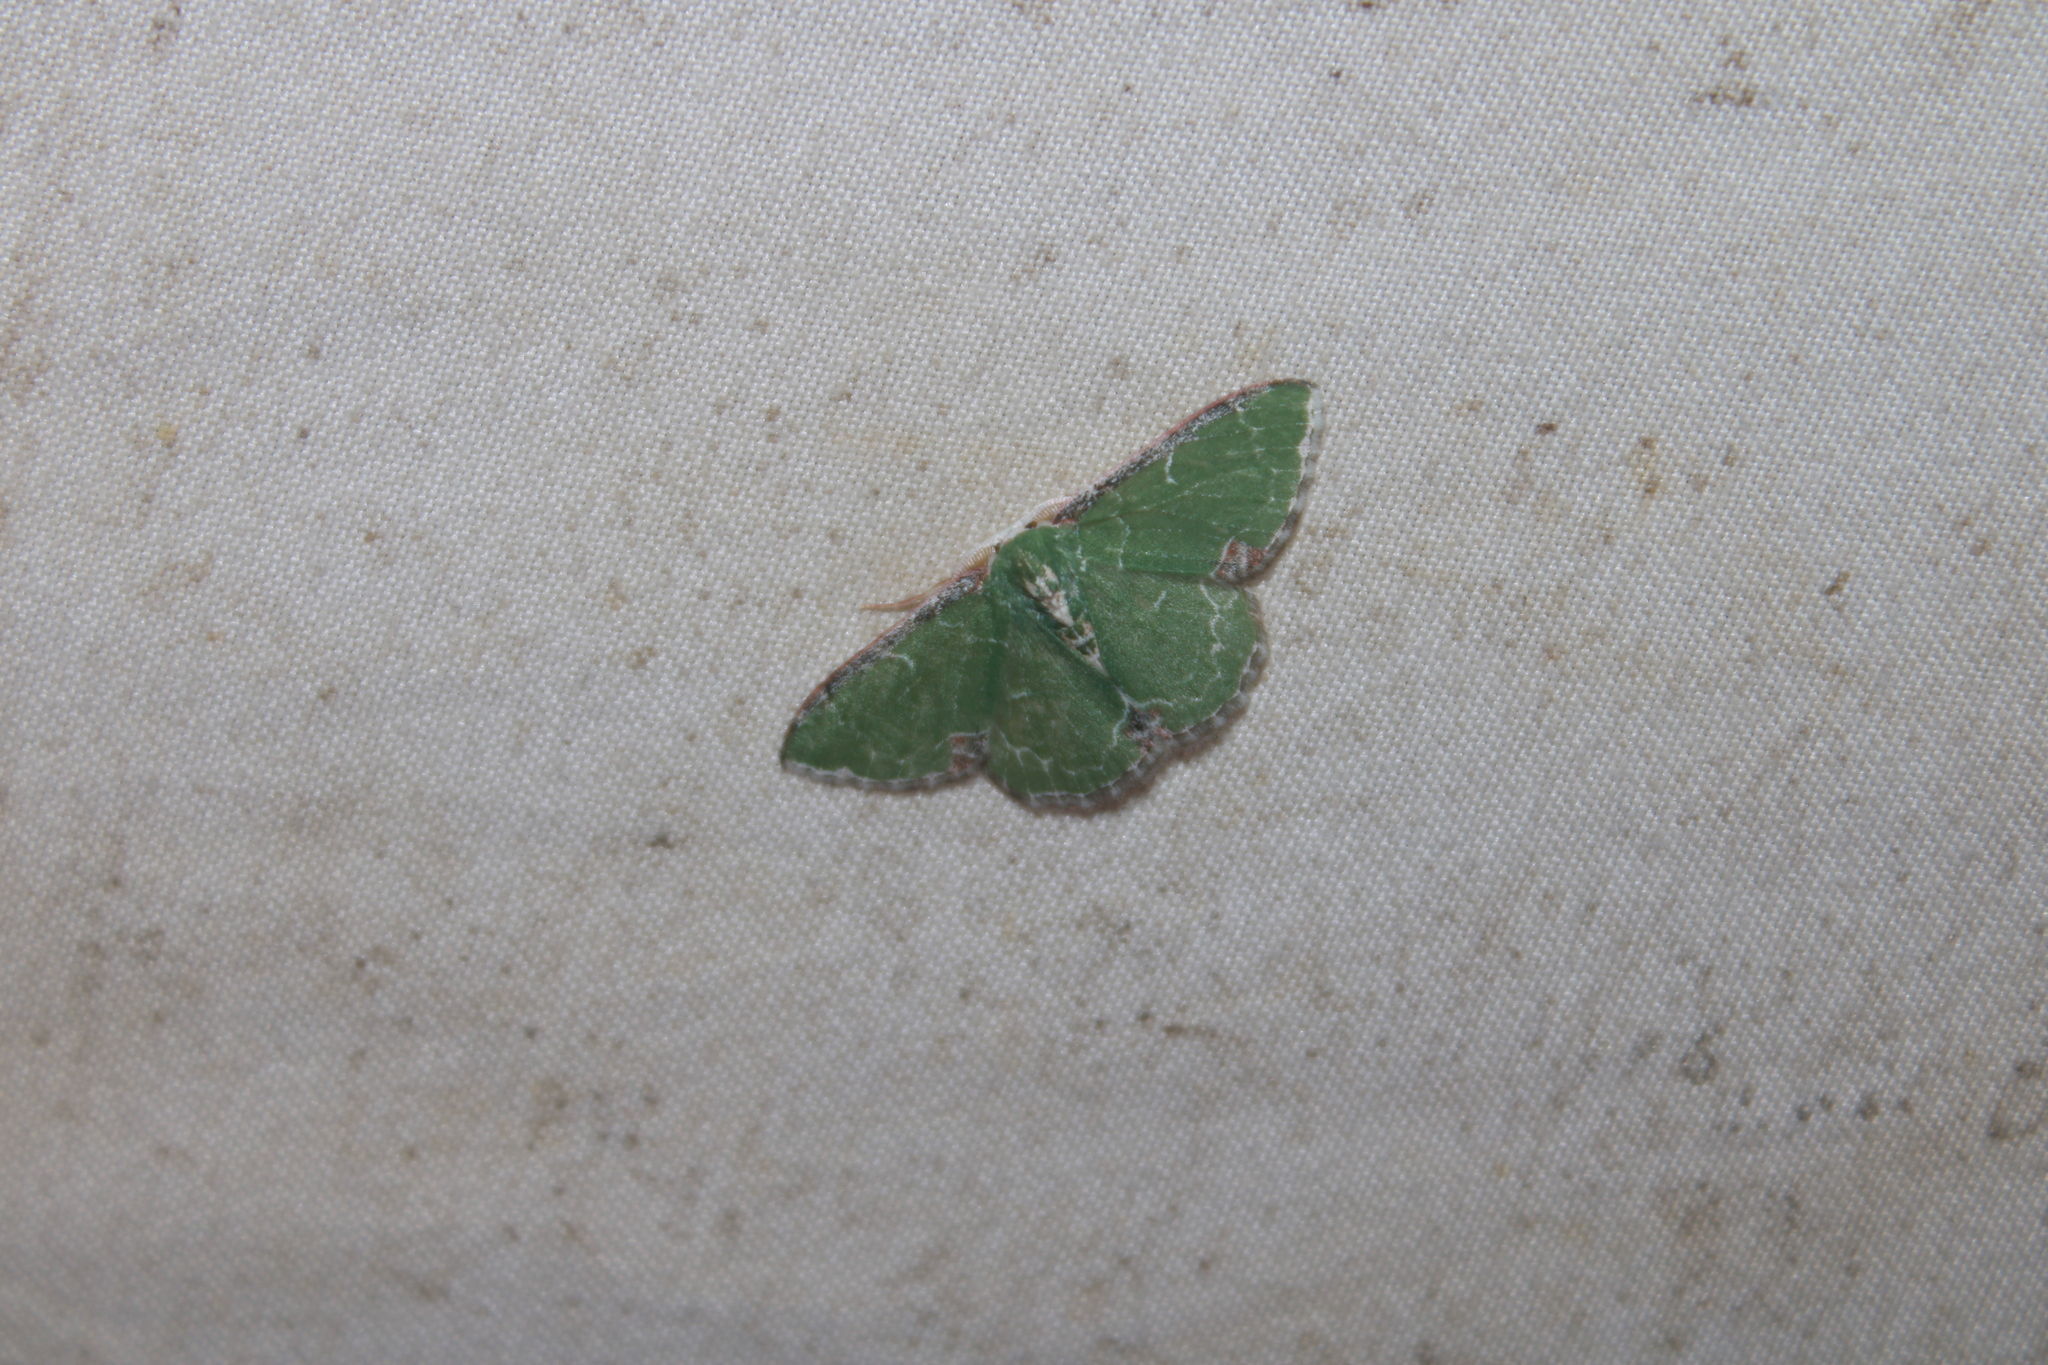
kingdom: Animalia
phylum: Arthropoda
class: Insecta
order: Lepidoptera
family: Geometridae
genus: Eueana
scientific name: Eueana niveociliaria
